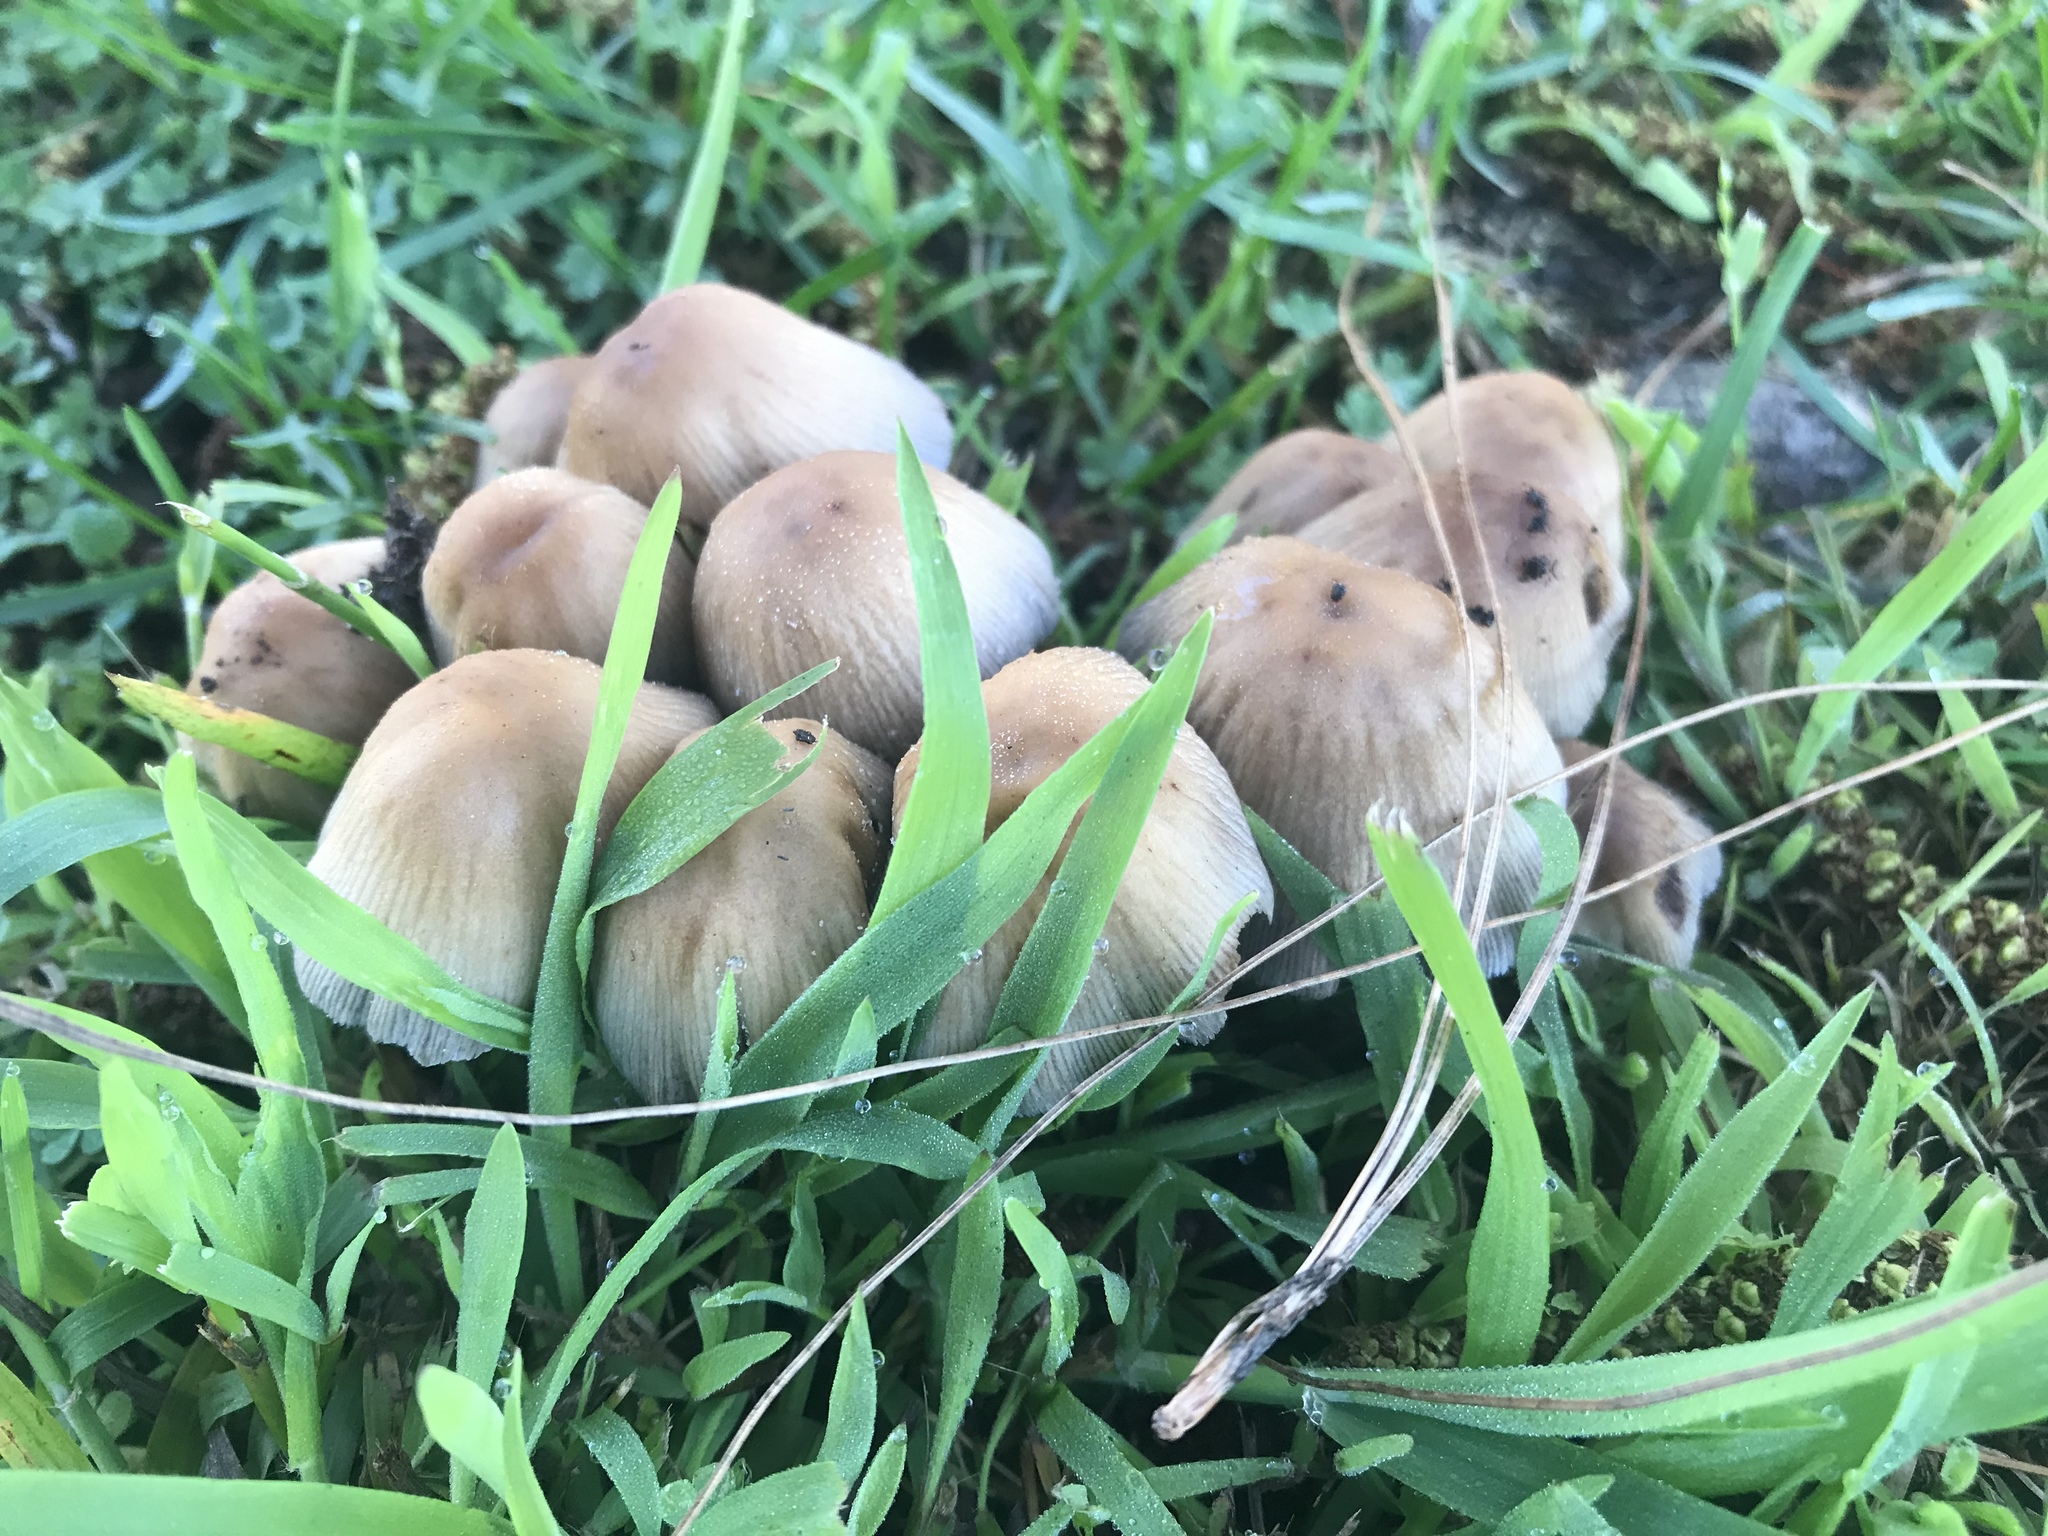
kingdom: Fungi
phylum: Basidiomycota
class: Agaricomycetes
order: Agaricales
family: Psathyrellaceae
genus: Coprinellus
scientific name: Coprinellus micaceus
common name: Glistening ink-cap
